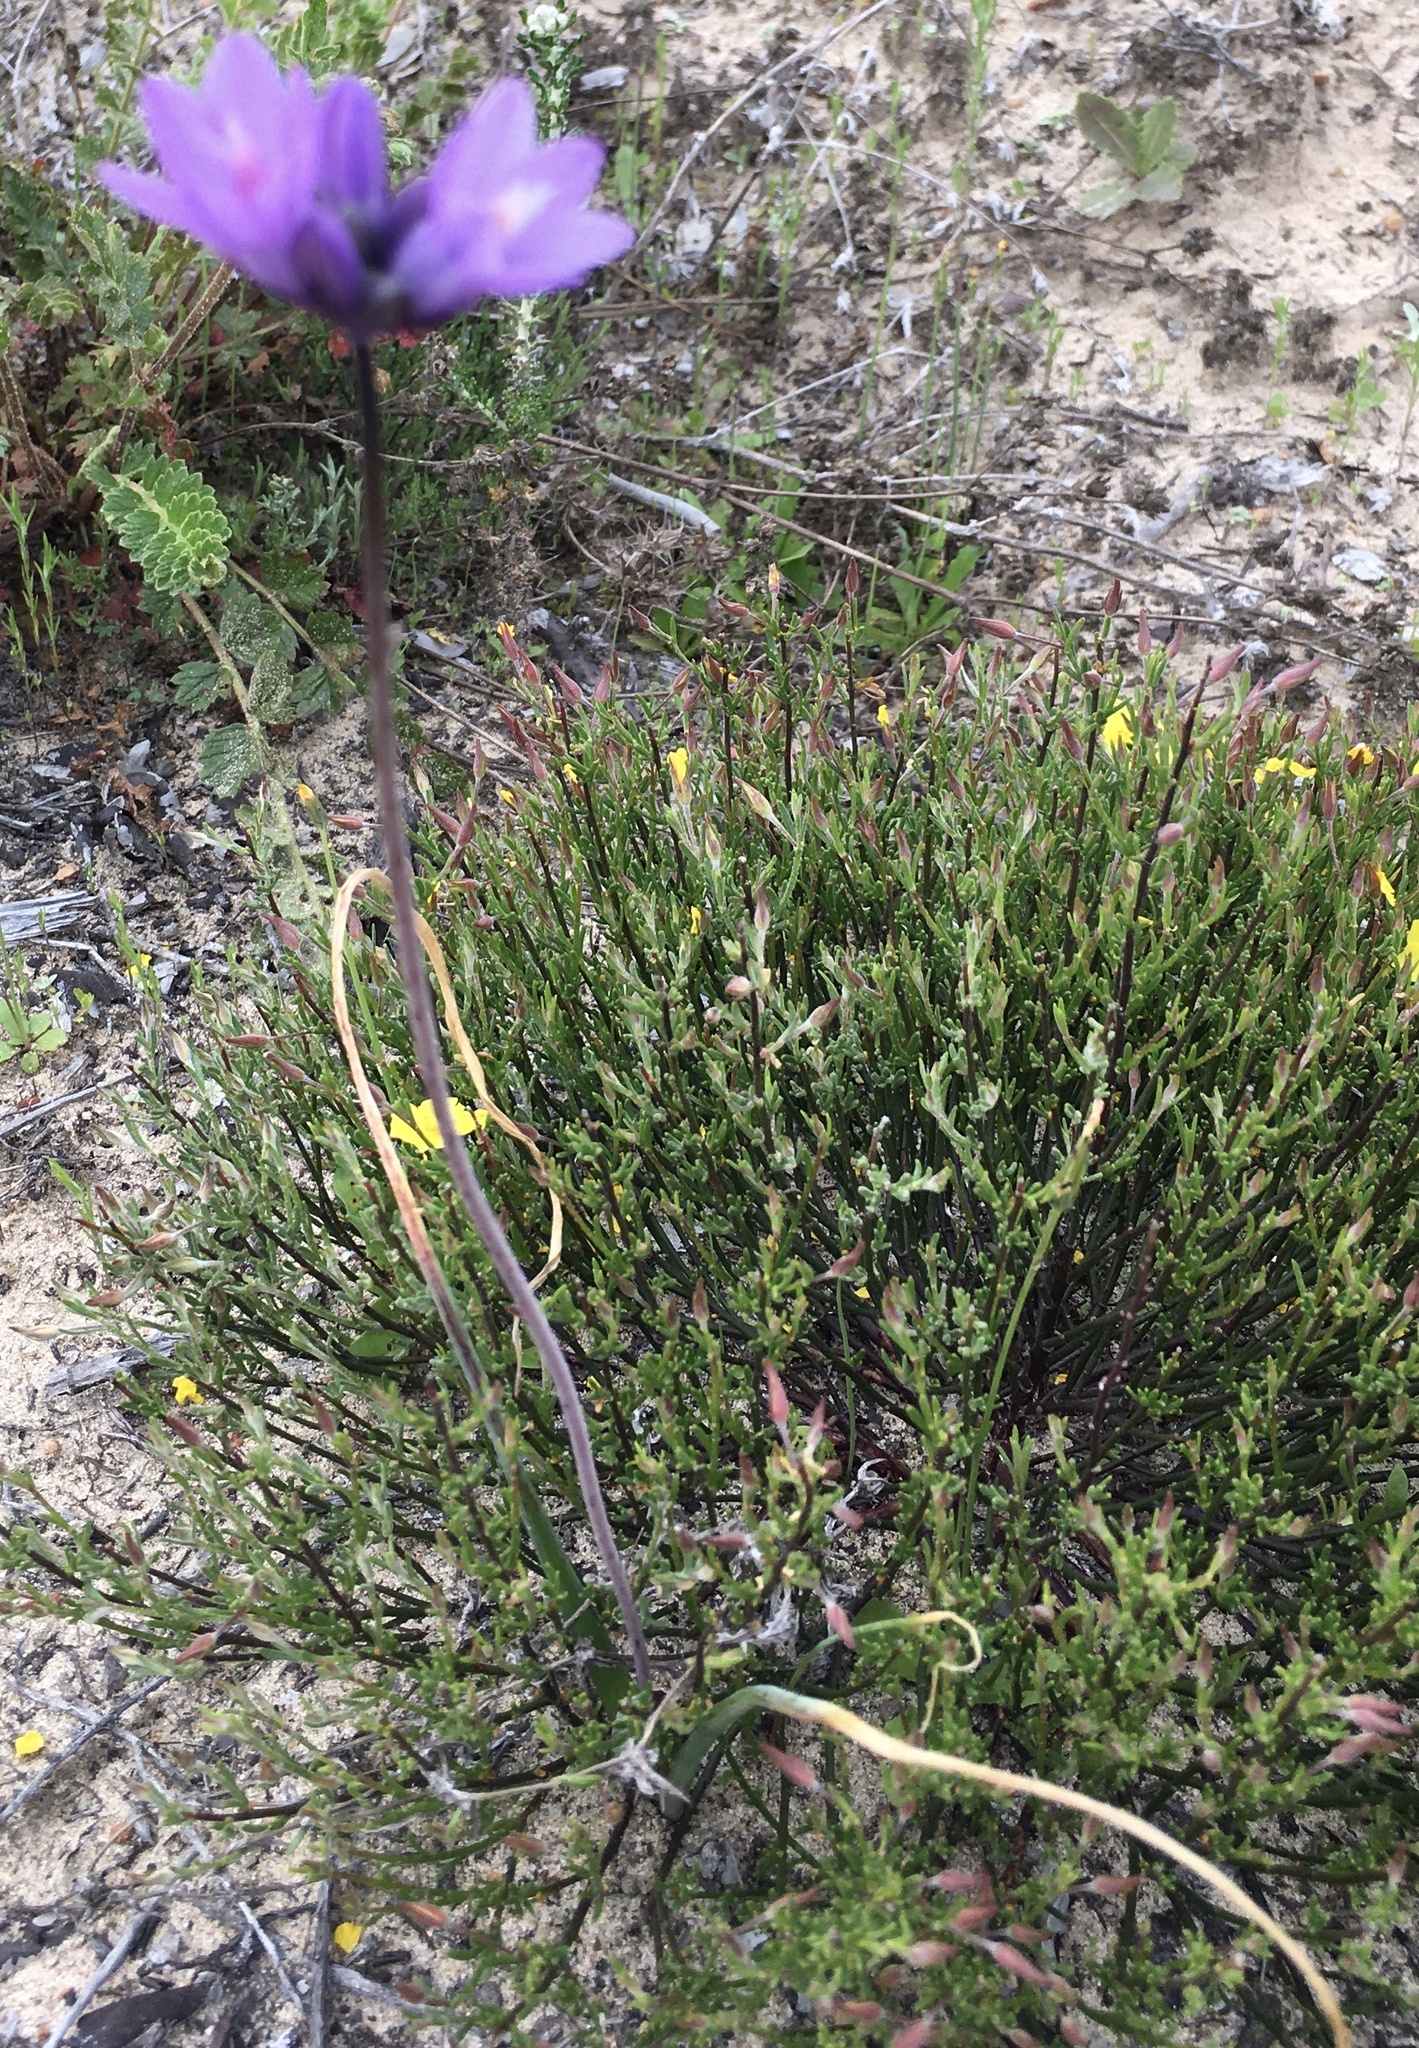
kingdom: Plantae
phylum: Tracheophyta
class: Liliopsida
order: Asparagales
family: Asparagaceae
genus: Dipterostemon
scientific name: Dipterostemon capitatus
